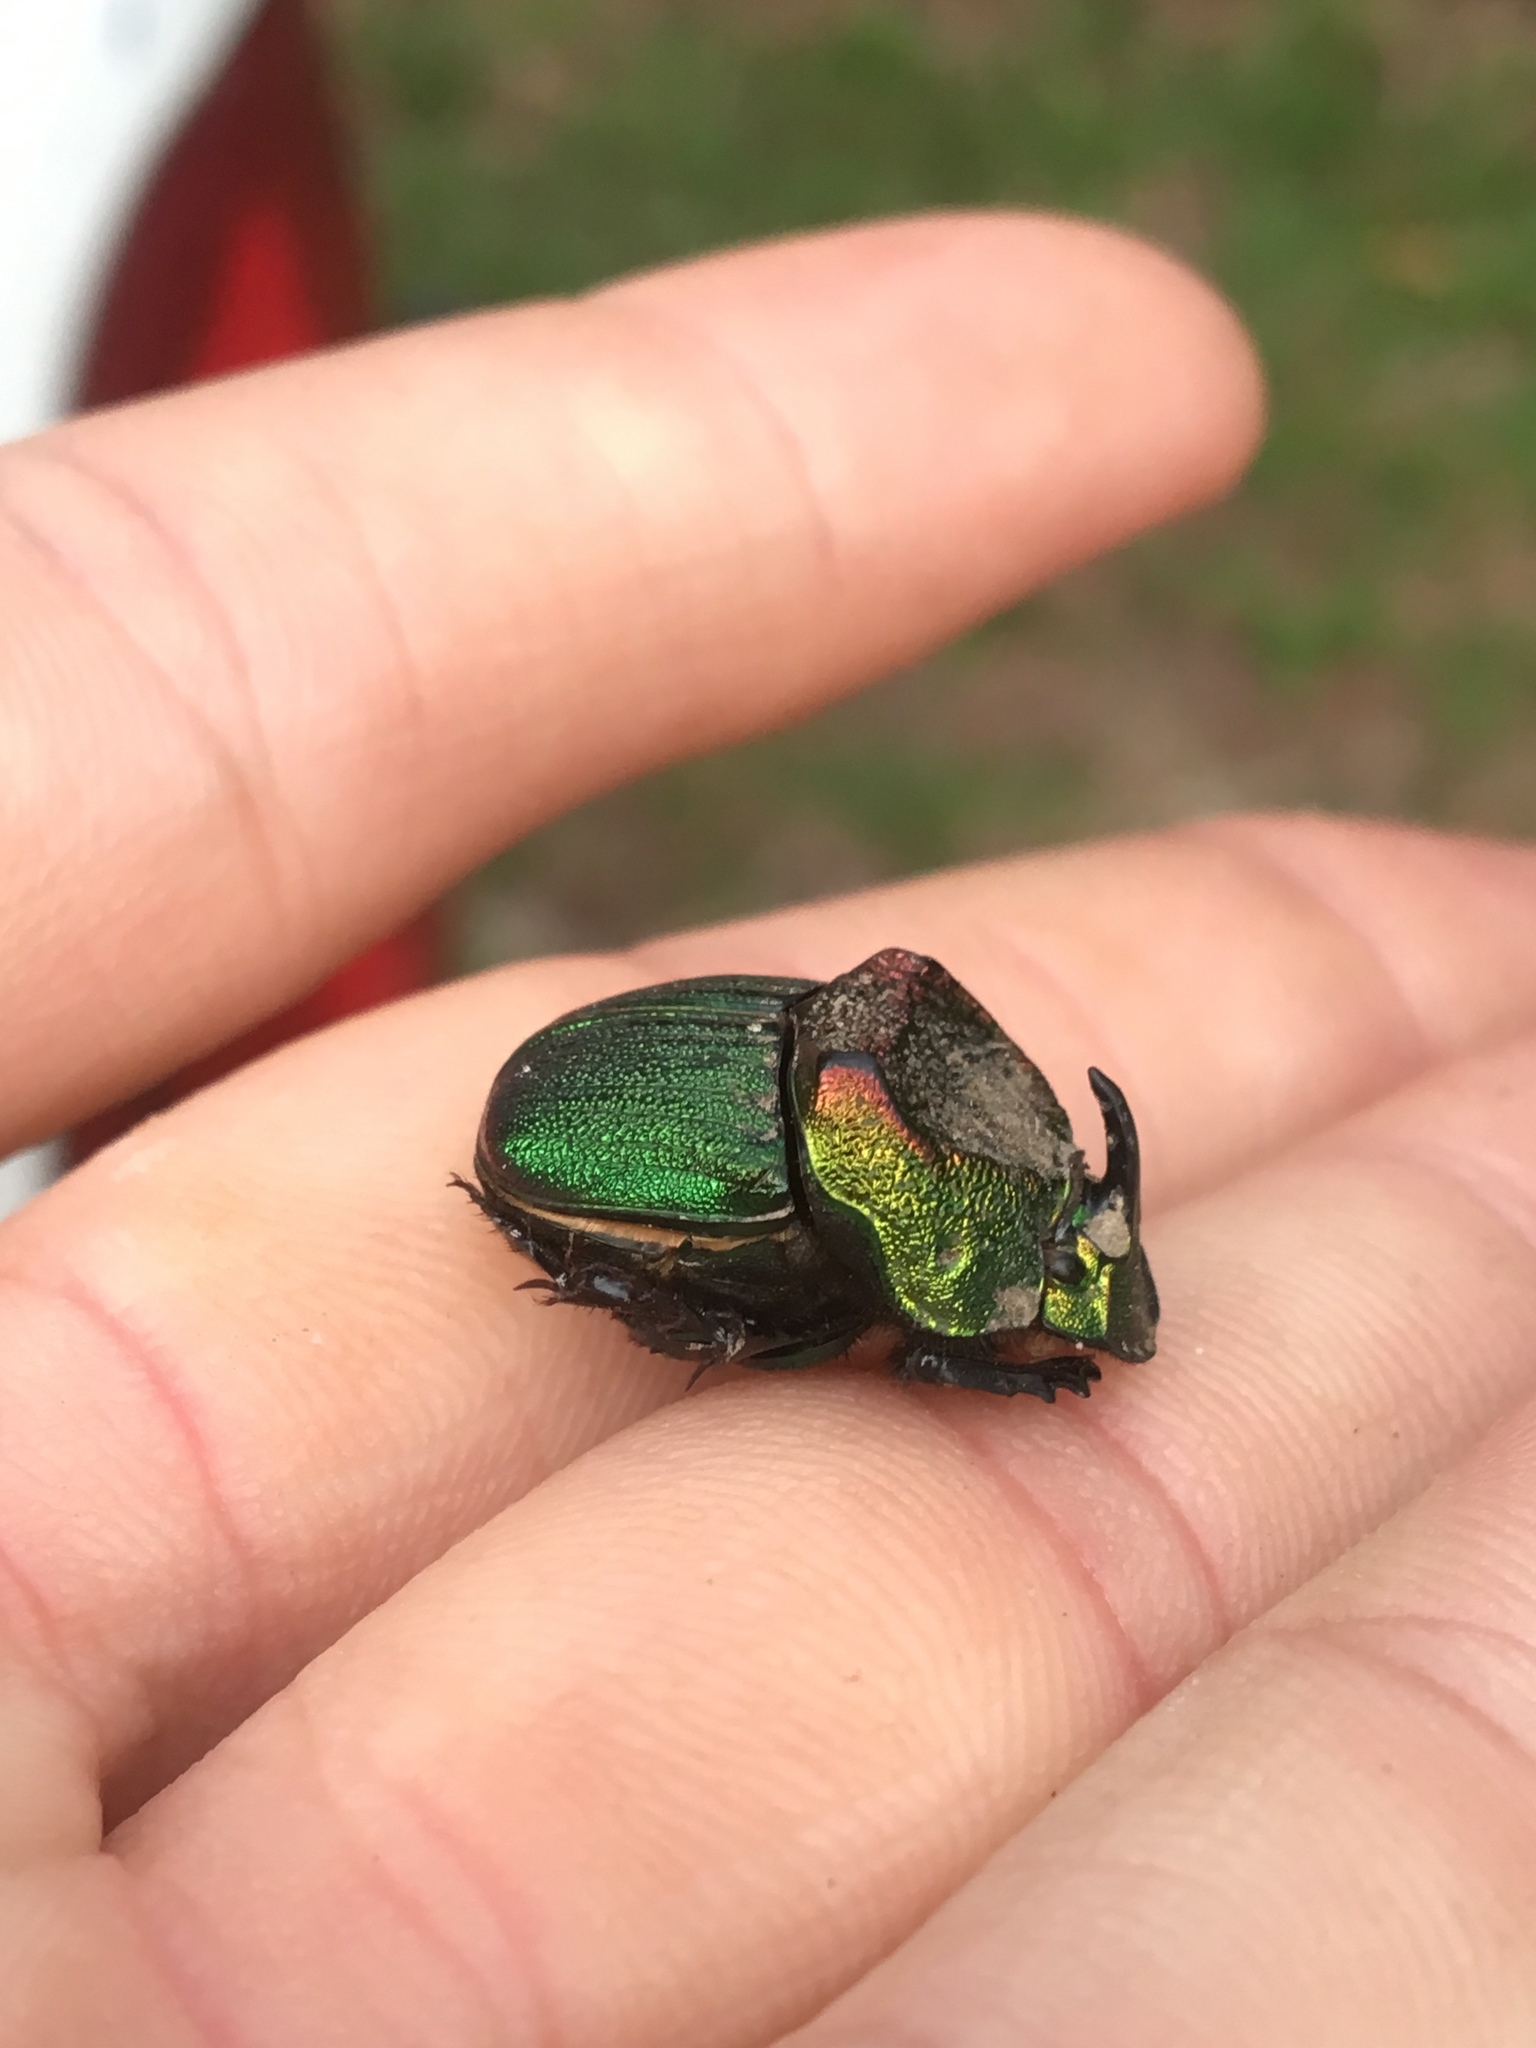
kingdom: Animalia
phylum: Arthropoda
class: Insecta
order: Coleoptera
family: Scarabaeidae
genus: Phanaeus
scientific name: Phanaeus difformis
